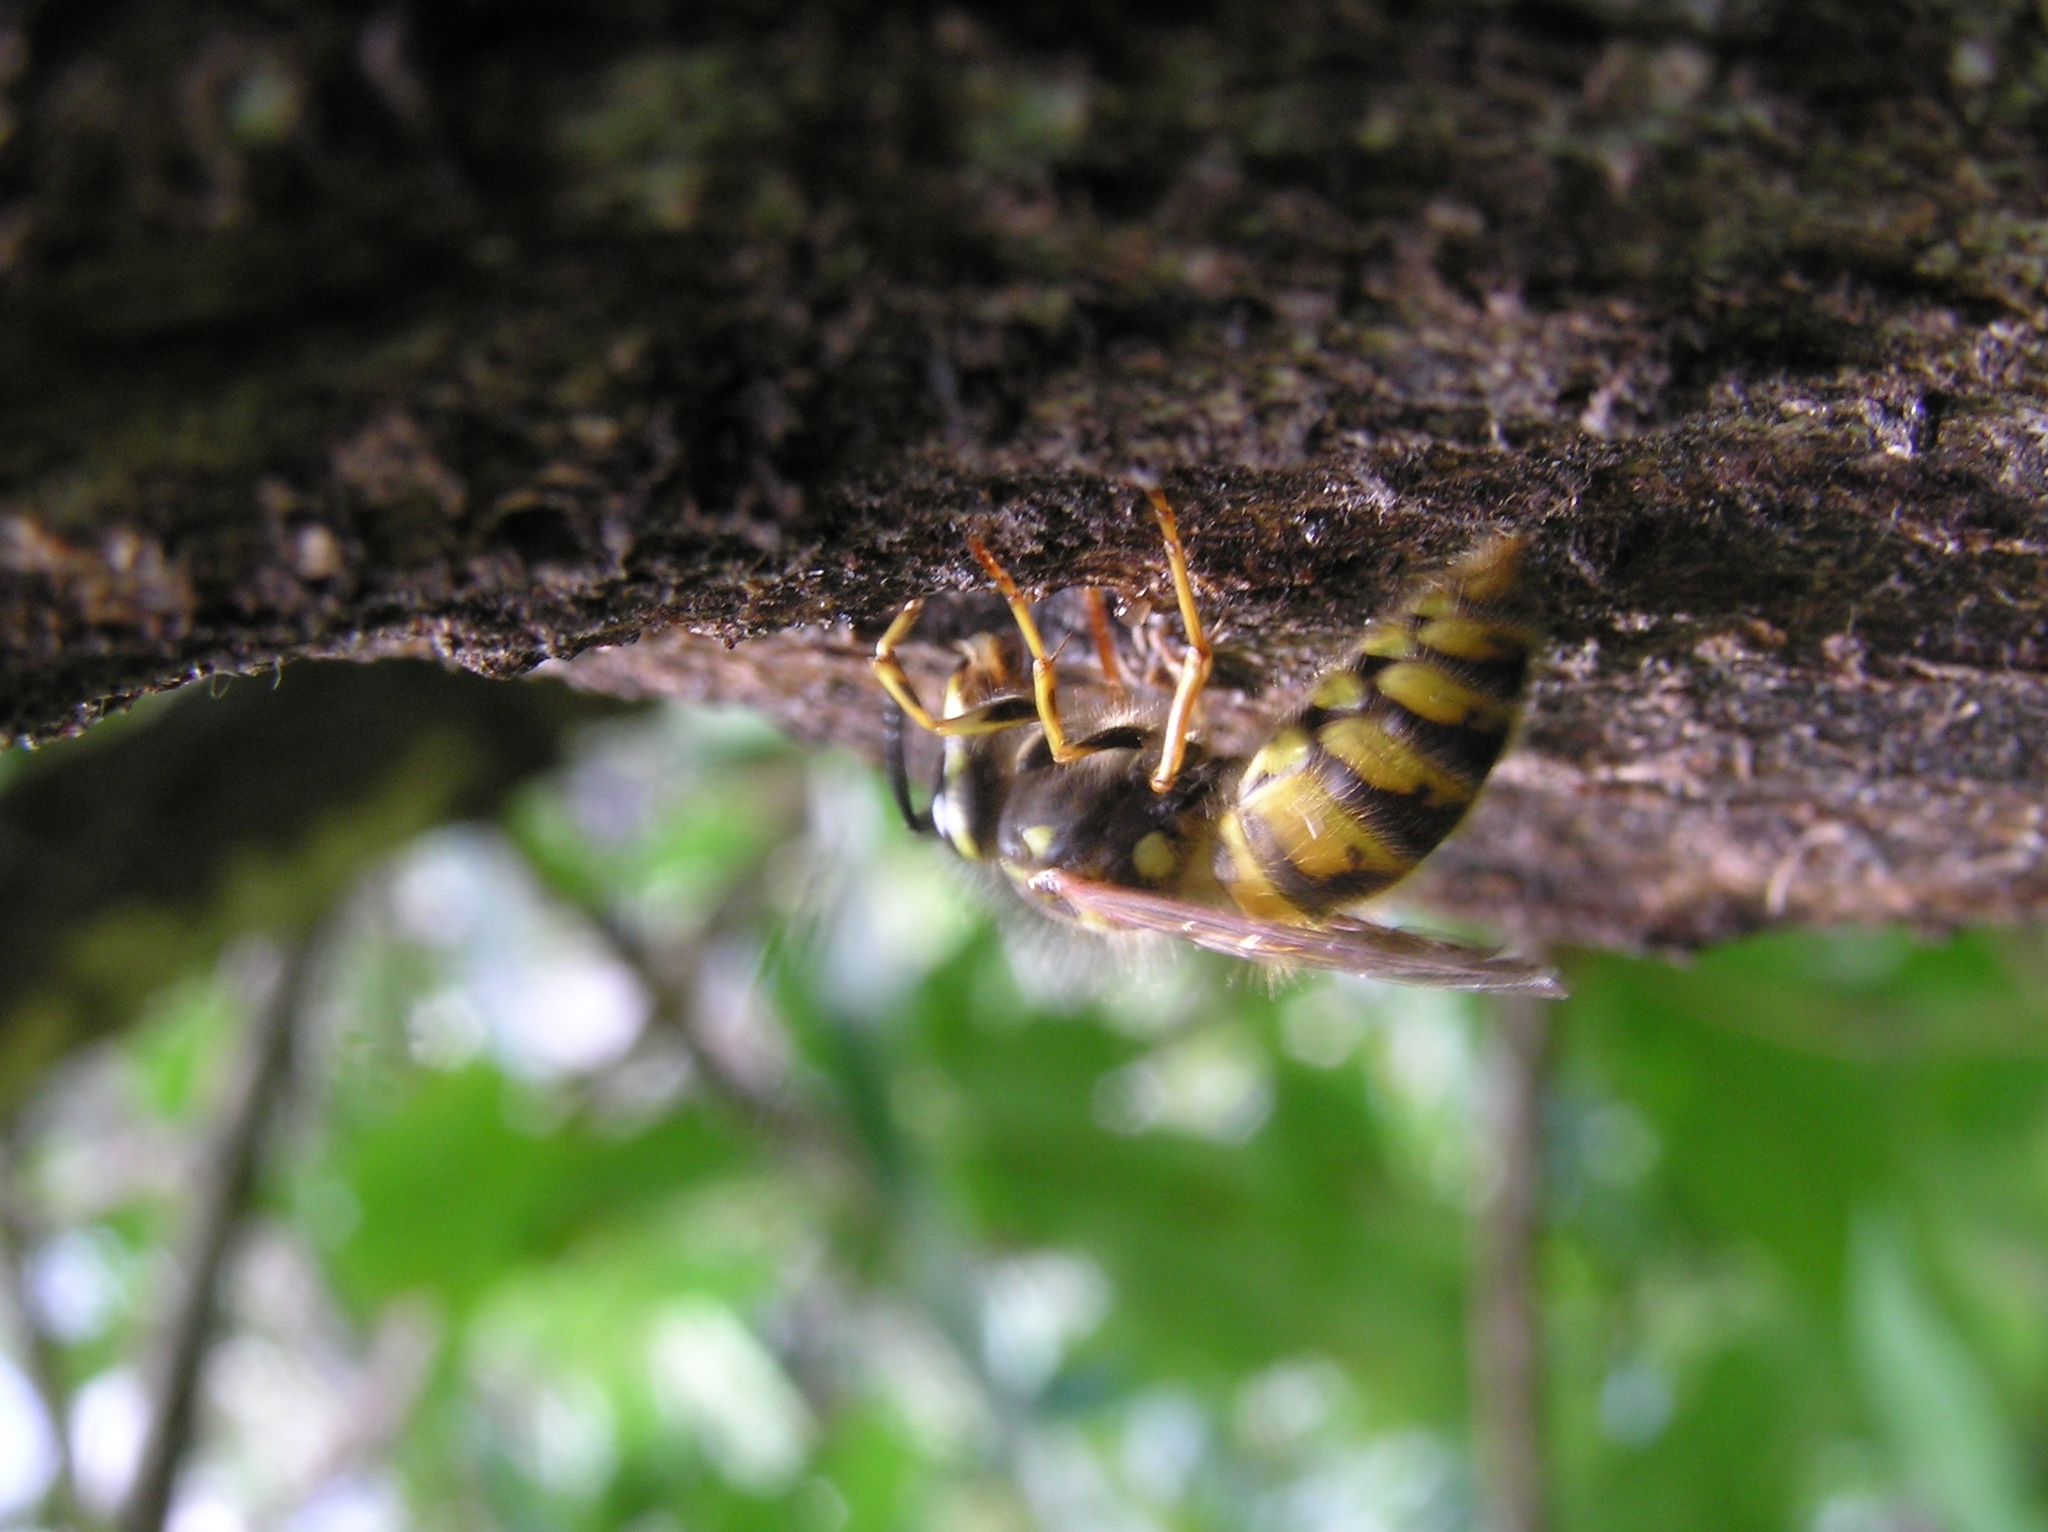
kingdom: Animalia
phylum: Arthropoda
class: Insecta
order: Hymenoptera
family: Vespidae
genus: Vespula
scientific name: Vespula vulgaris
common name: Common wasp
